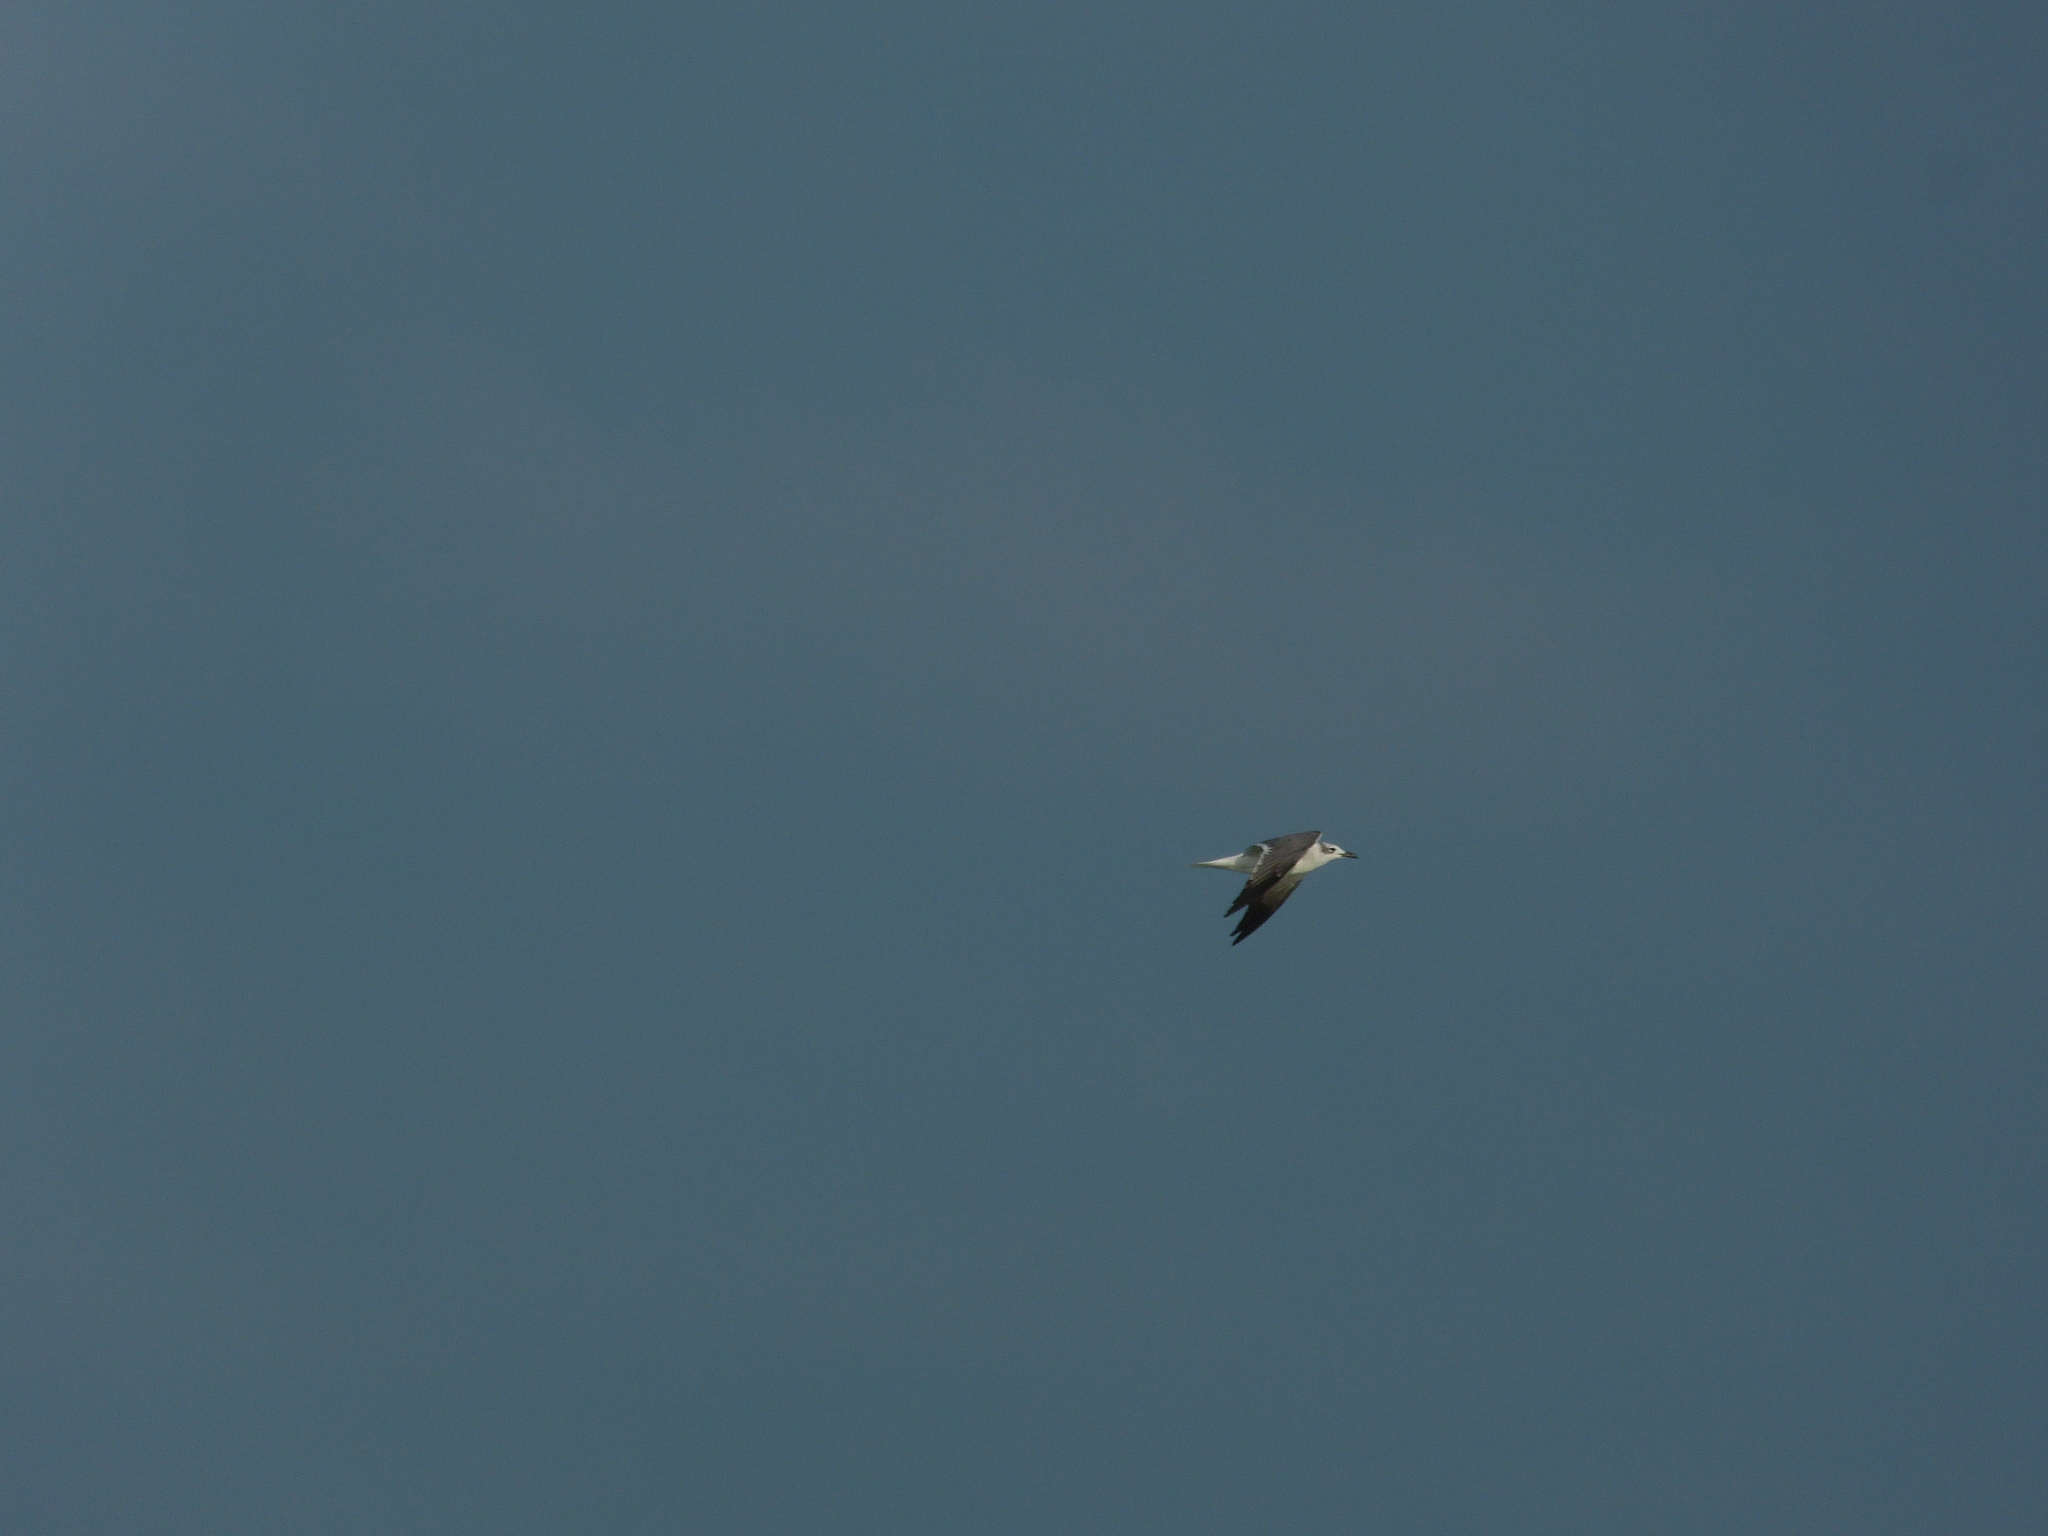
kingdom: Animalia
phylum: Chordata
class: Aves
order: Charadriiformes
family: Laridae
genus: Leucophaeus
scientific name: Leucophaeus atricilla
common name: Laughing gull
